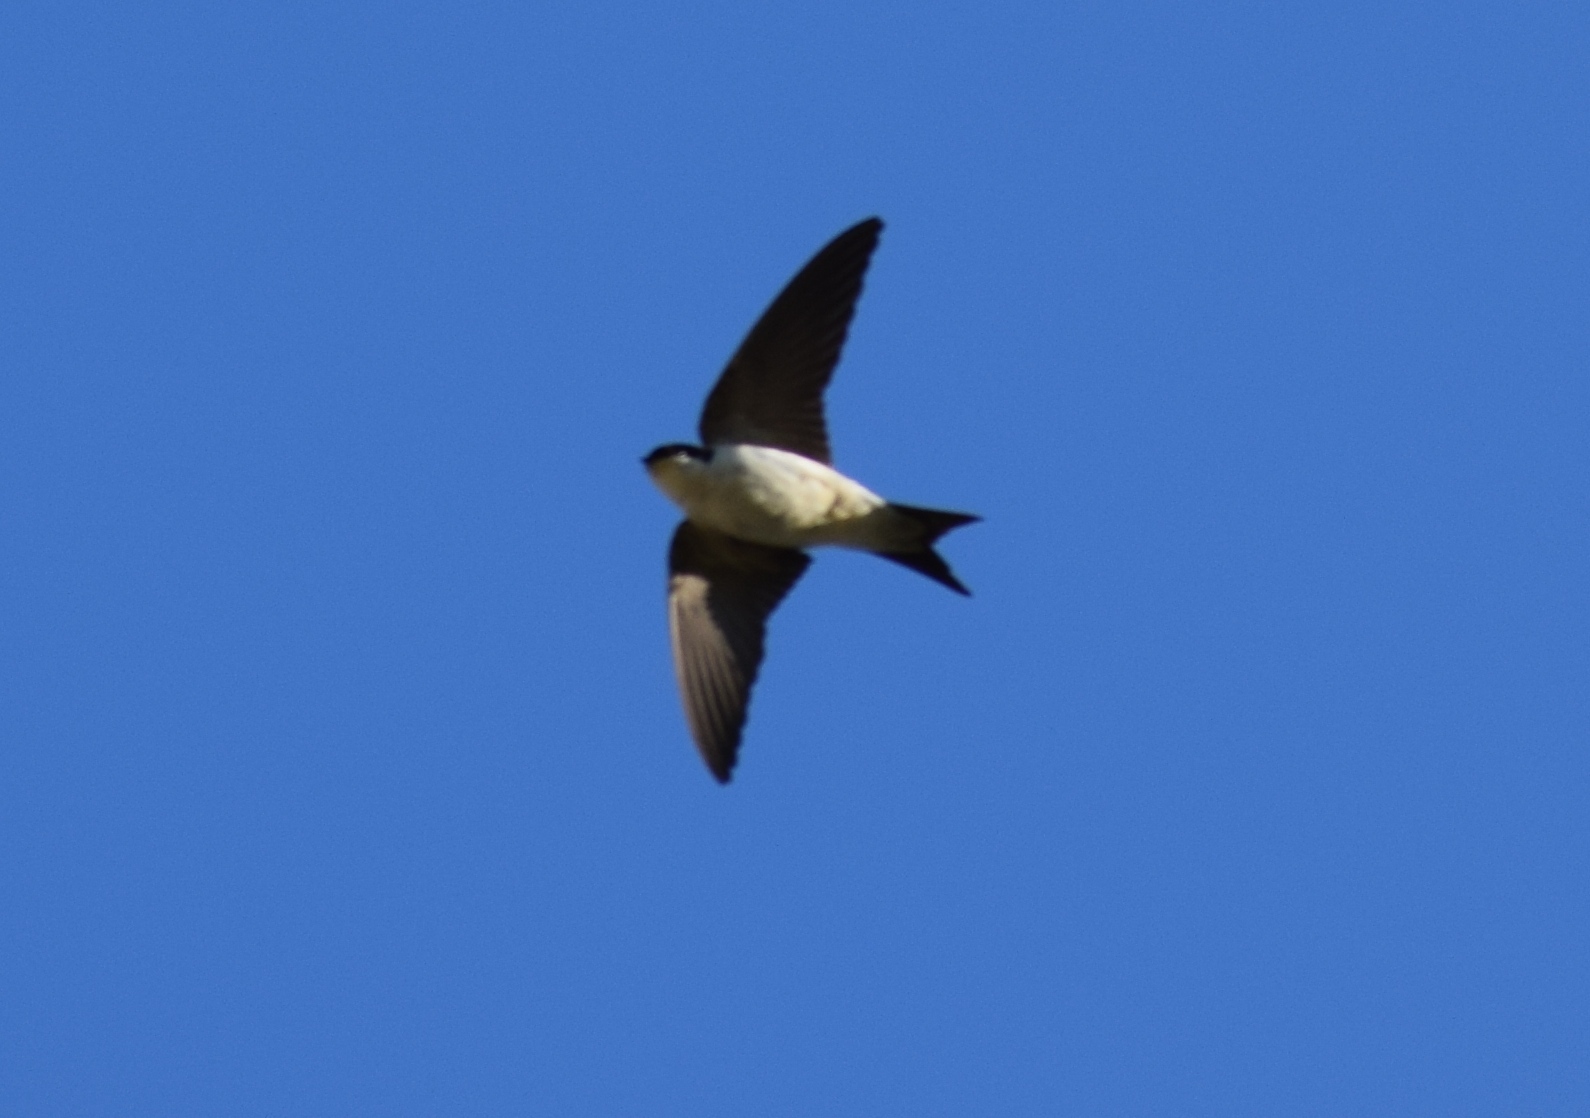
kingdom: Animalia
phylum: Chordata
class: Aves
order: Passeriformes
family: Hirundinidae
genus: Delichon
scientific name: Delichon urbicum
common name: Common house martin
